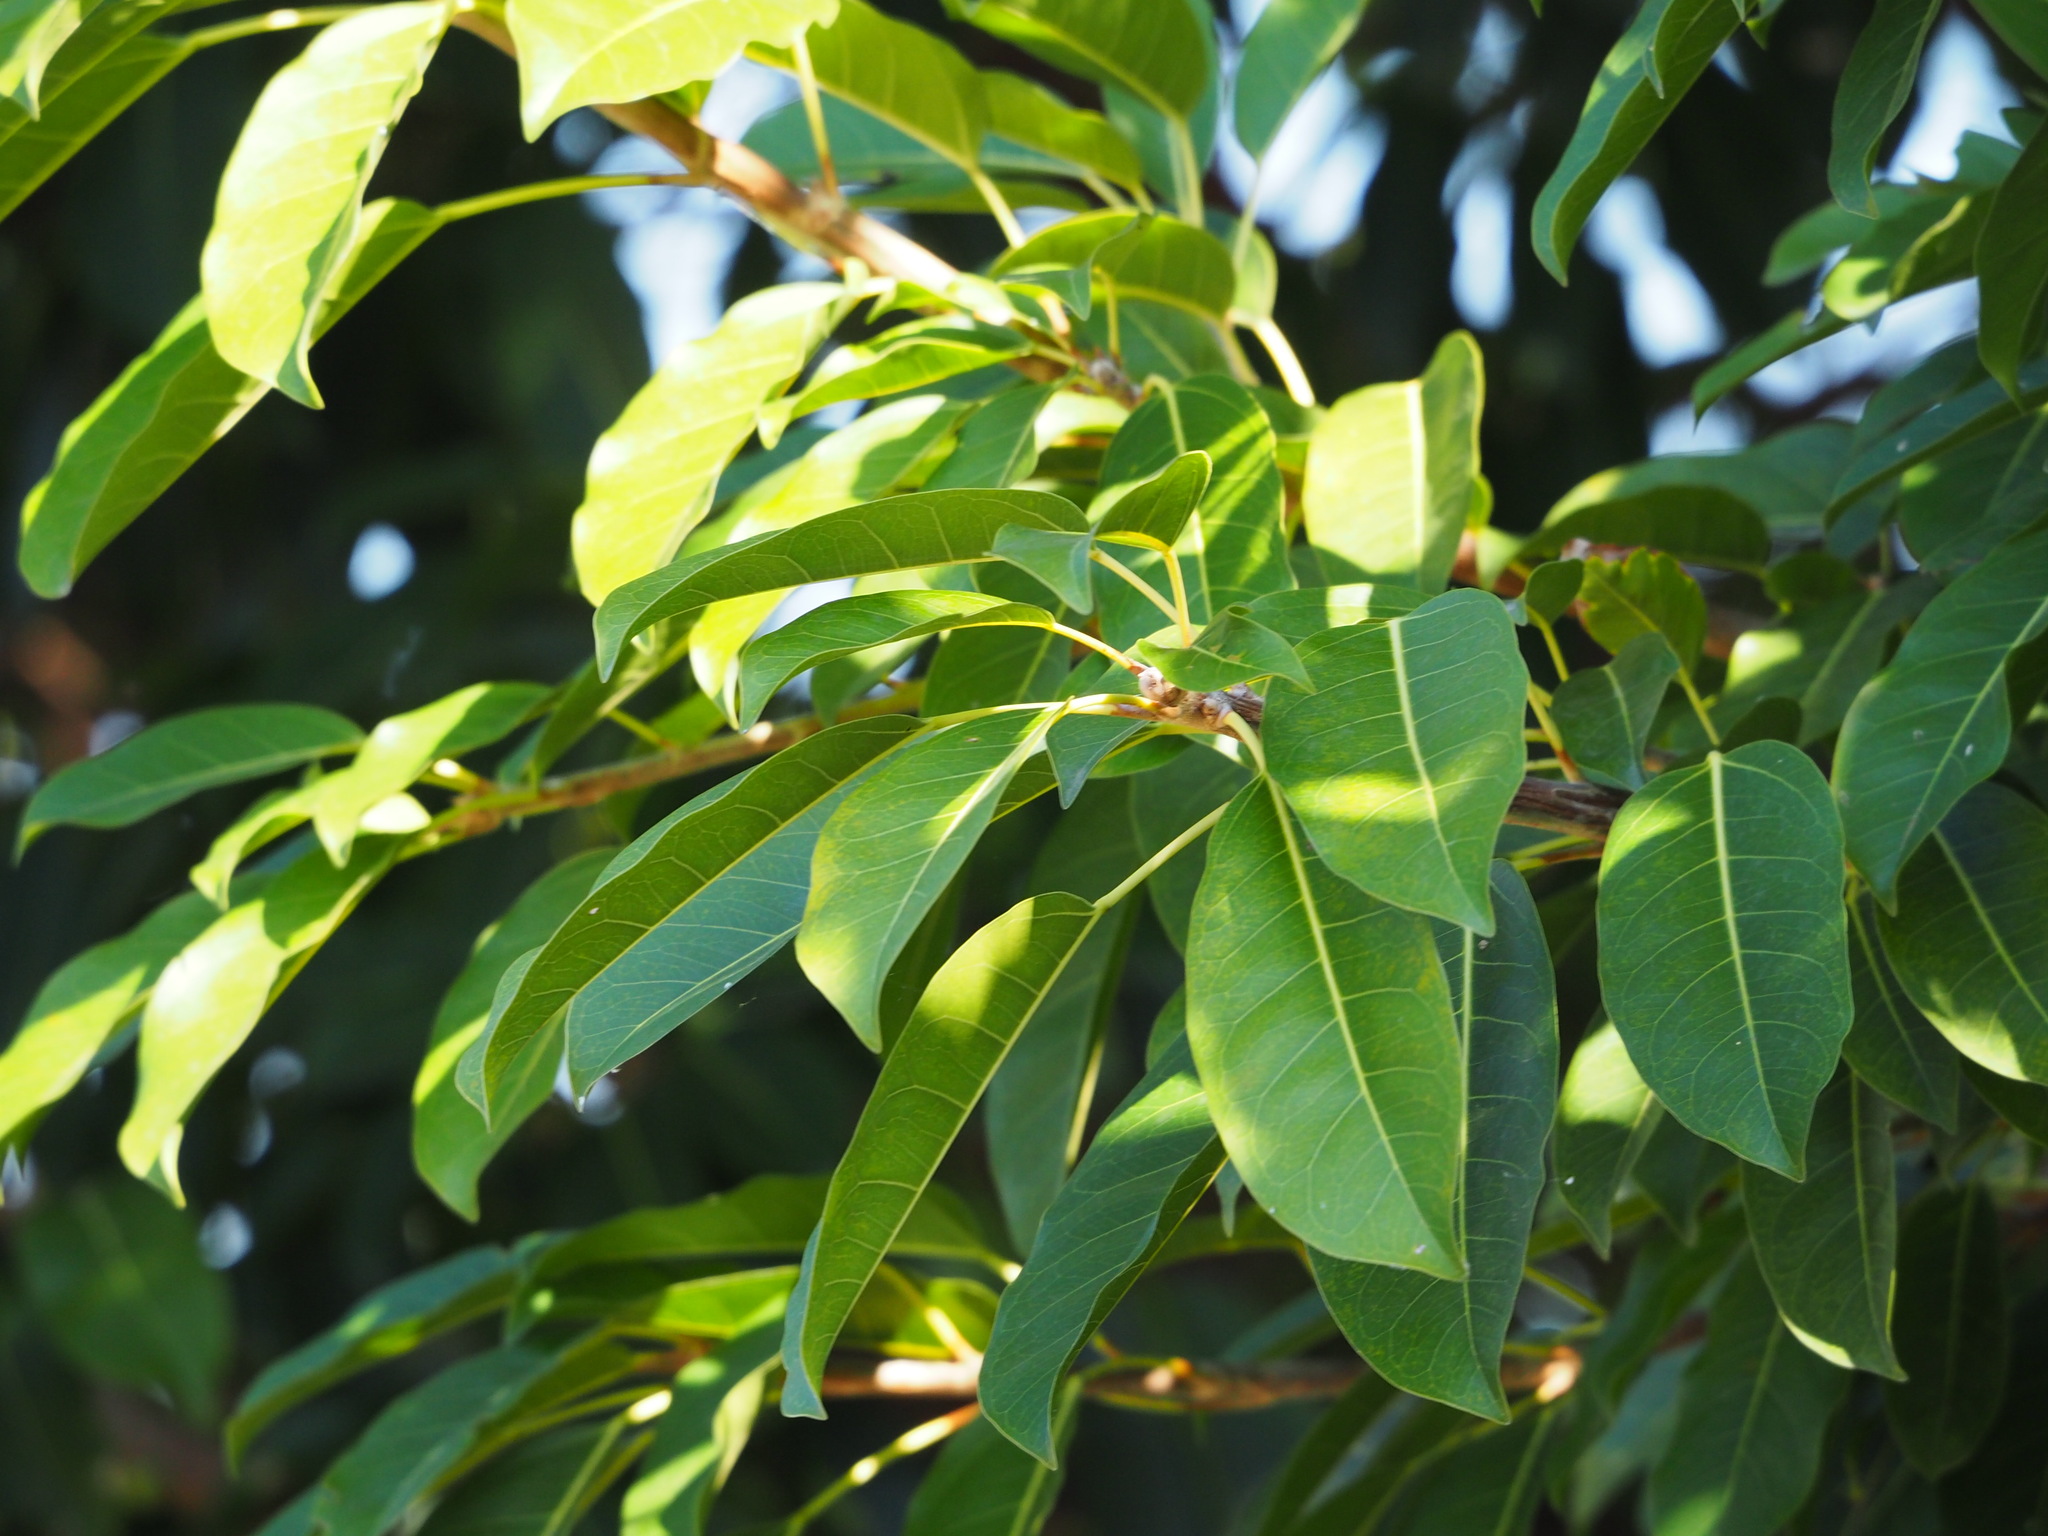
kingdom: Plantae
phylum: Tracheophyta
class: Magnoliopsida
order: Rosales
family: Moraceae
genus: Ficus
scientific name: Ficus subpisocarpa
